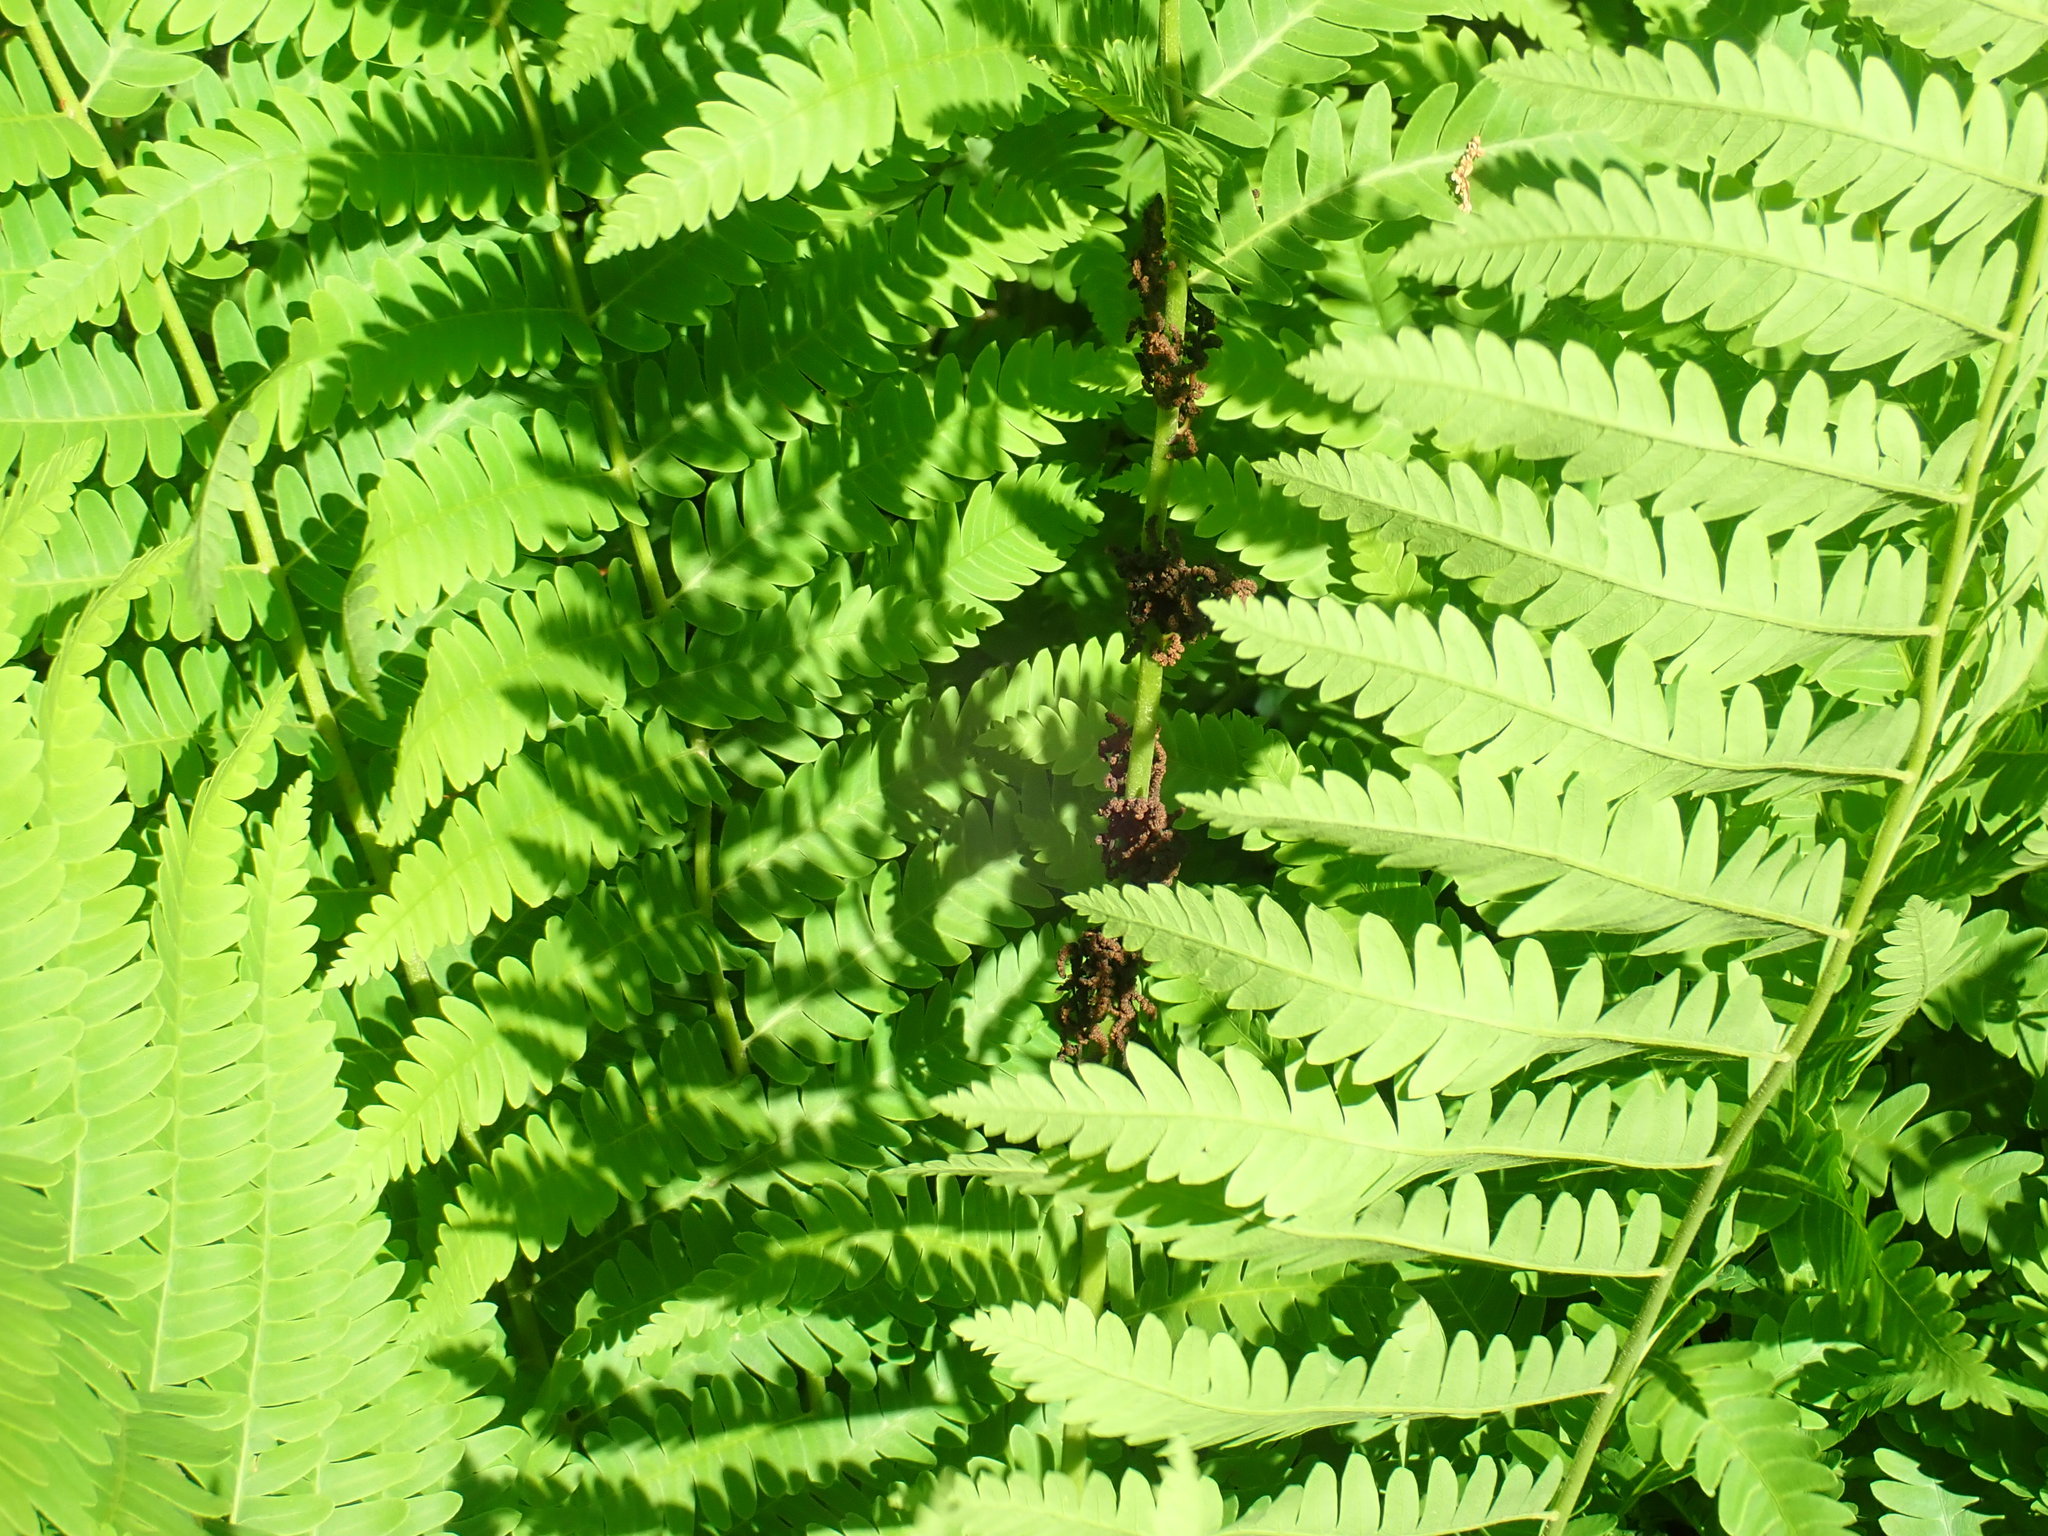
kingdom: Plantae
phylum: Tracheophyta
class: Polypodiopsida
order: Osmundales
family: Osmundaceae
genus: Claytosmunda
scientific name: Claytosmunda claytoniana
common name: Clayton's fern
